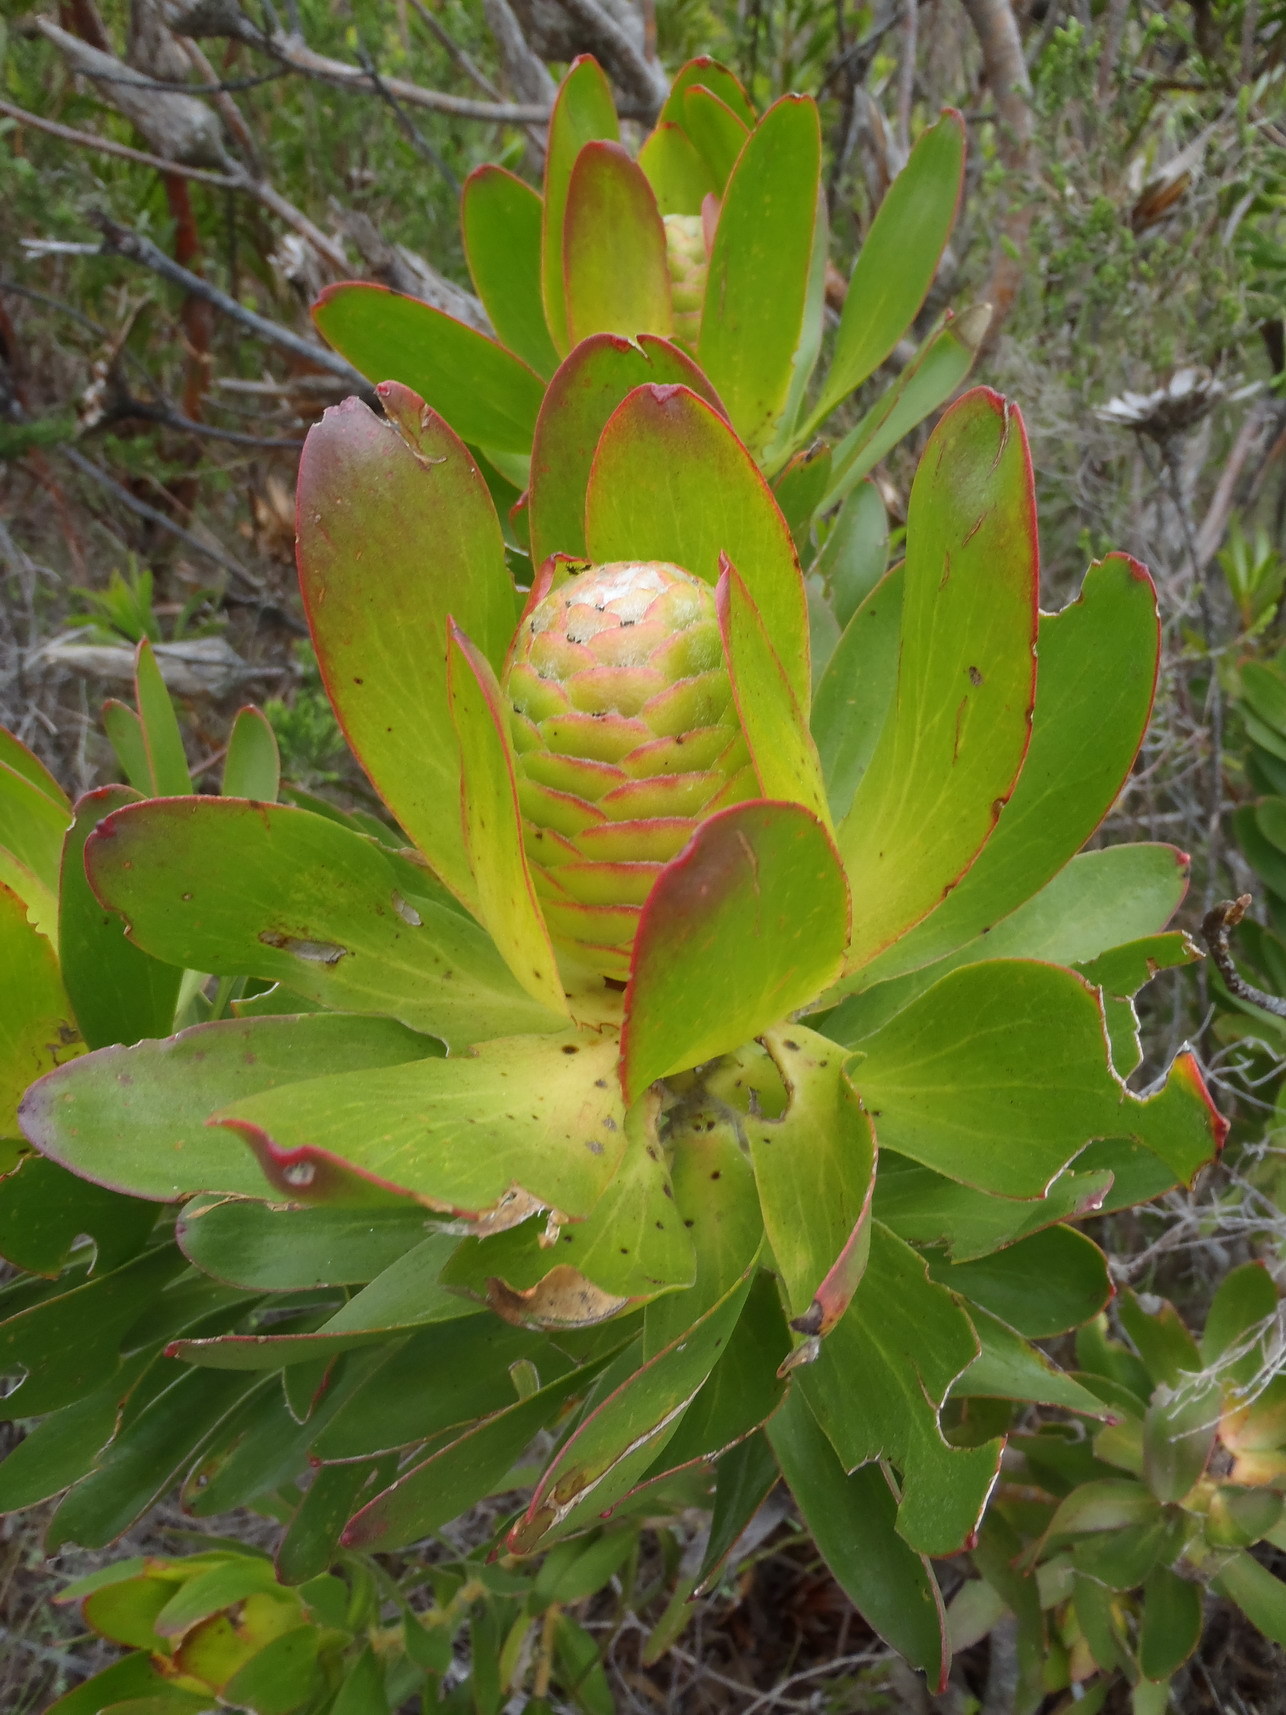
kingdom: Plantae
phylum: Tracheophyta
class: Magnoliopsida
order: Proteales
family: Proteaceae
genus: Leucadendron
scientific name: Leucadendron laureolum
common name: Golden sunshinebush
